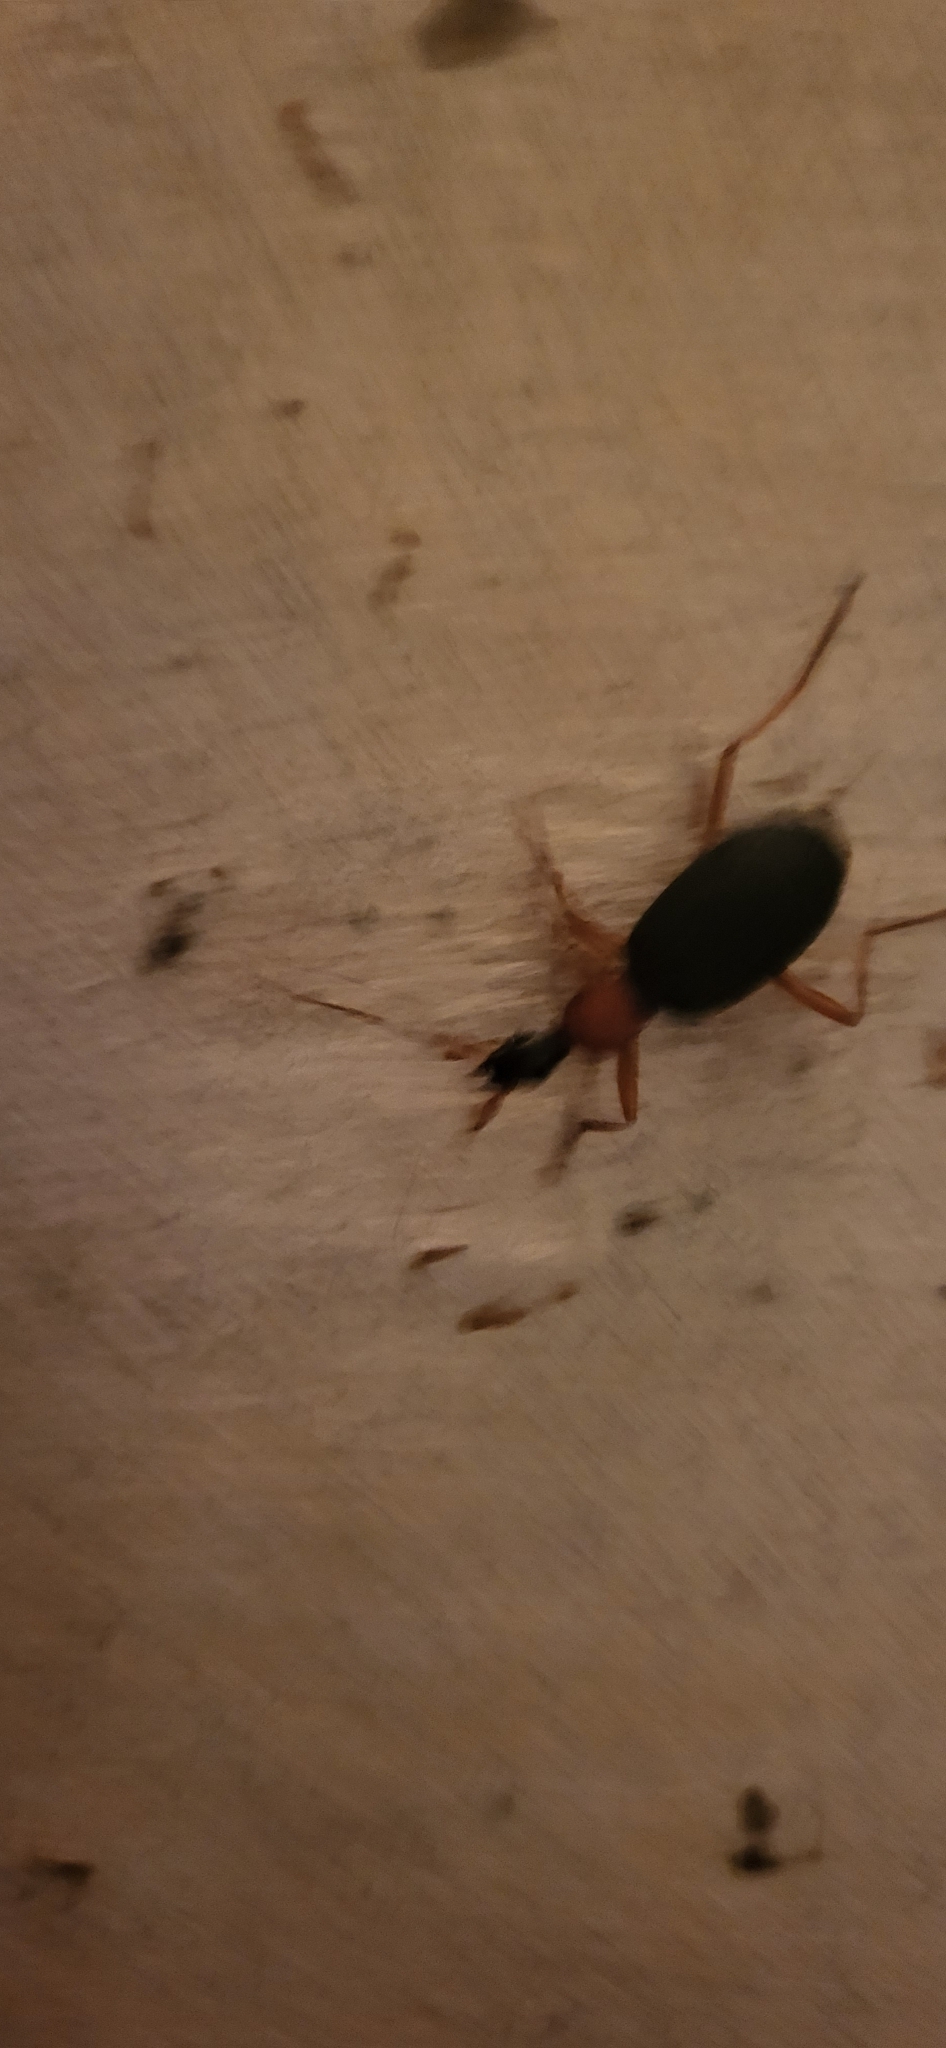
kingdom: Animalia
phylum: Arthropoda
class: Insecta
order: Coleoptera
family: Carabidae
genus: Galerita
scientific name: Galerita bicolor
